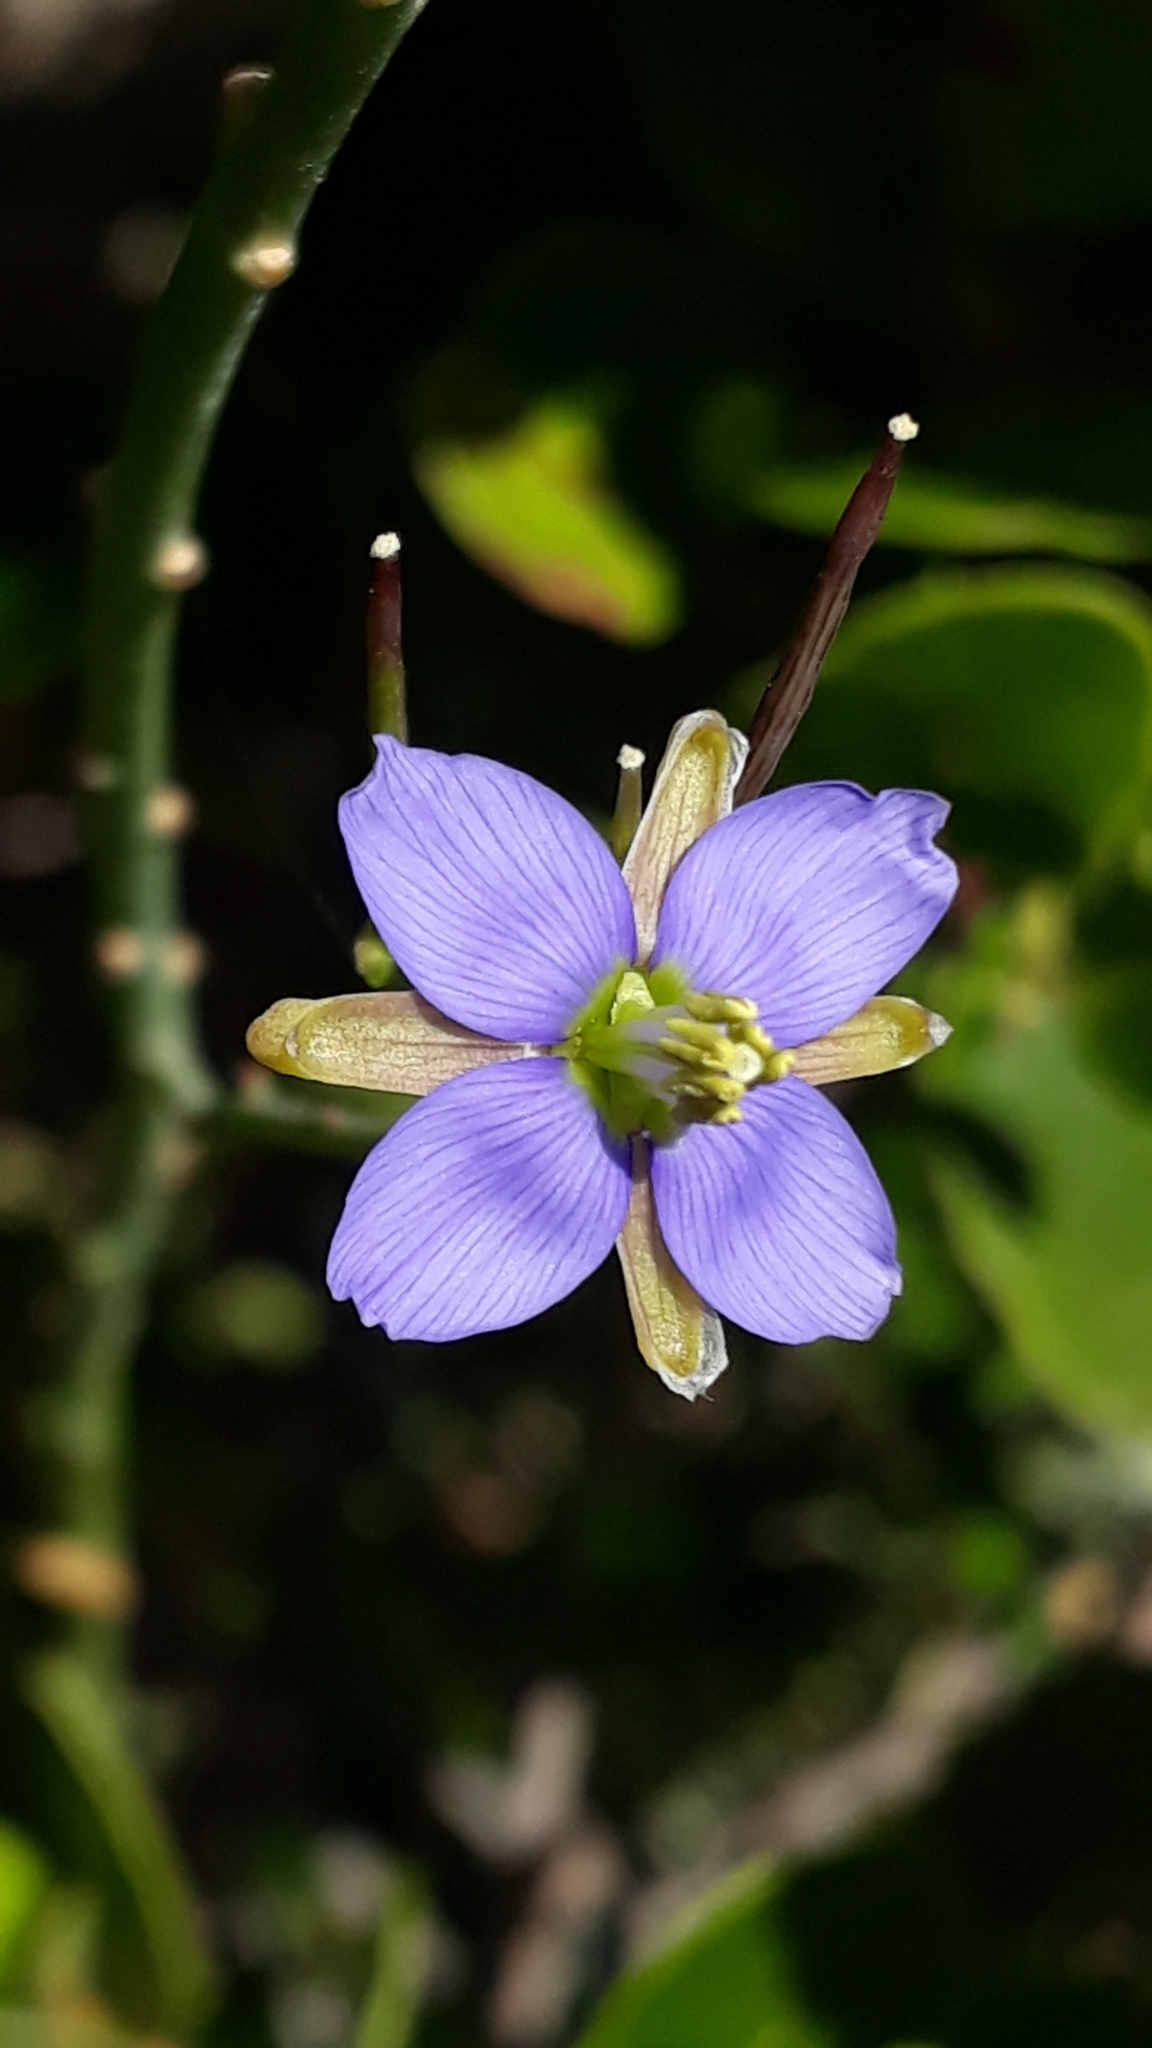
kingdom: Plantae
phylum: Tracheophyta
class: Magnoliopsida
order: Brassicales
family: Brassicaceae
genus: Heliophila
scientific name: Heliophila linearis
